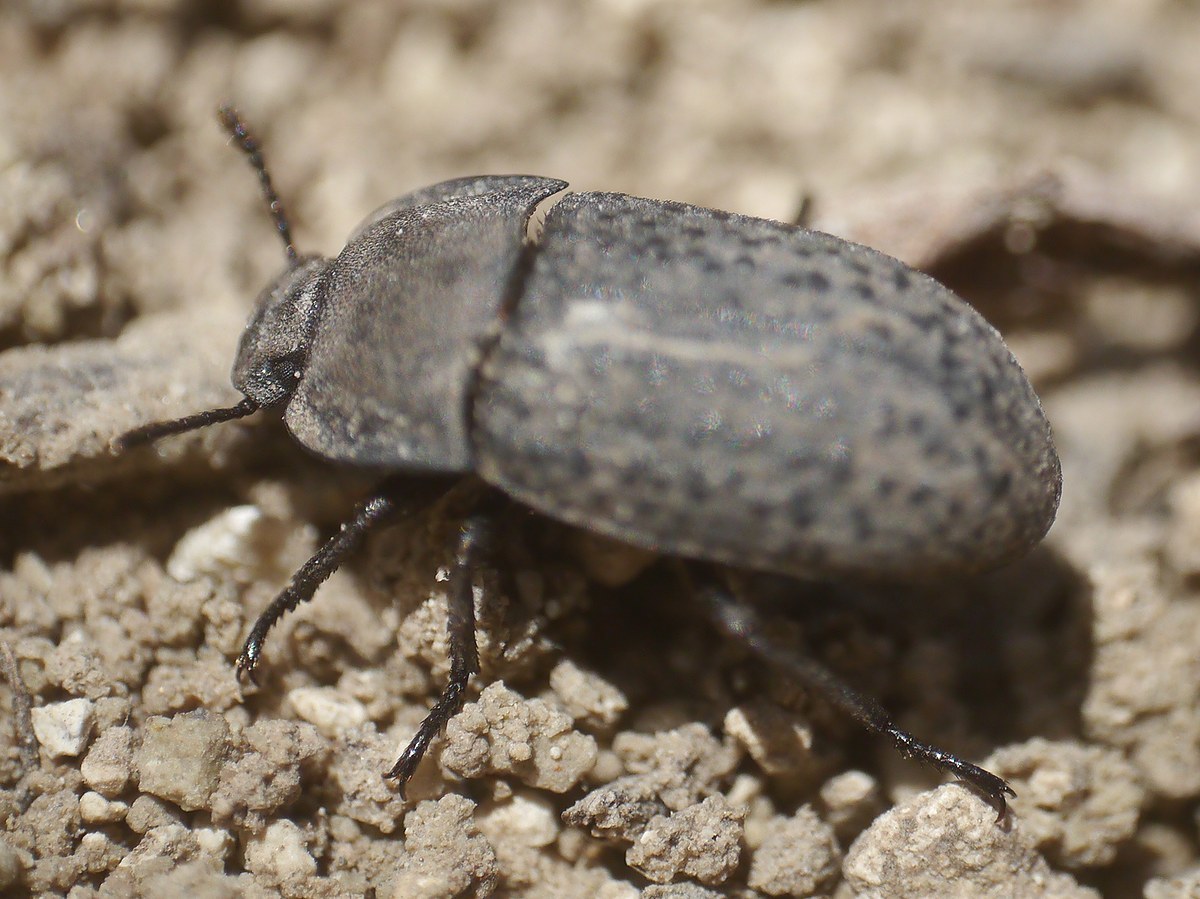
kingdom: Animalia
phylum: Arthropoda
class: Insecta
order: Coleoptera
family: Tenebrionidae
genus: Opatrum
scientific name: Opatrum sabulosum
